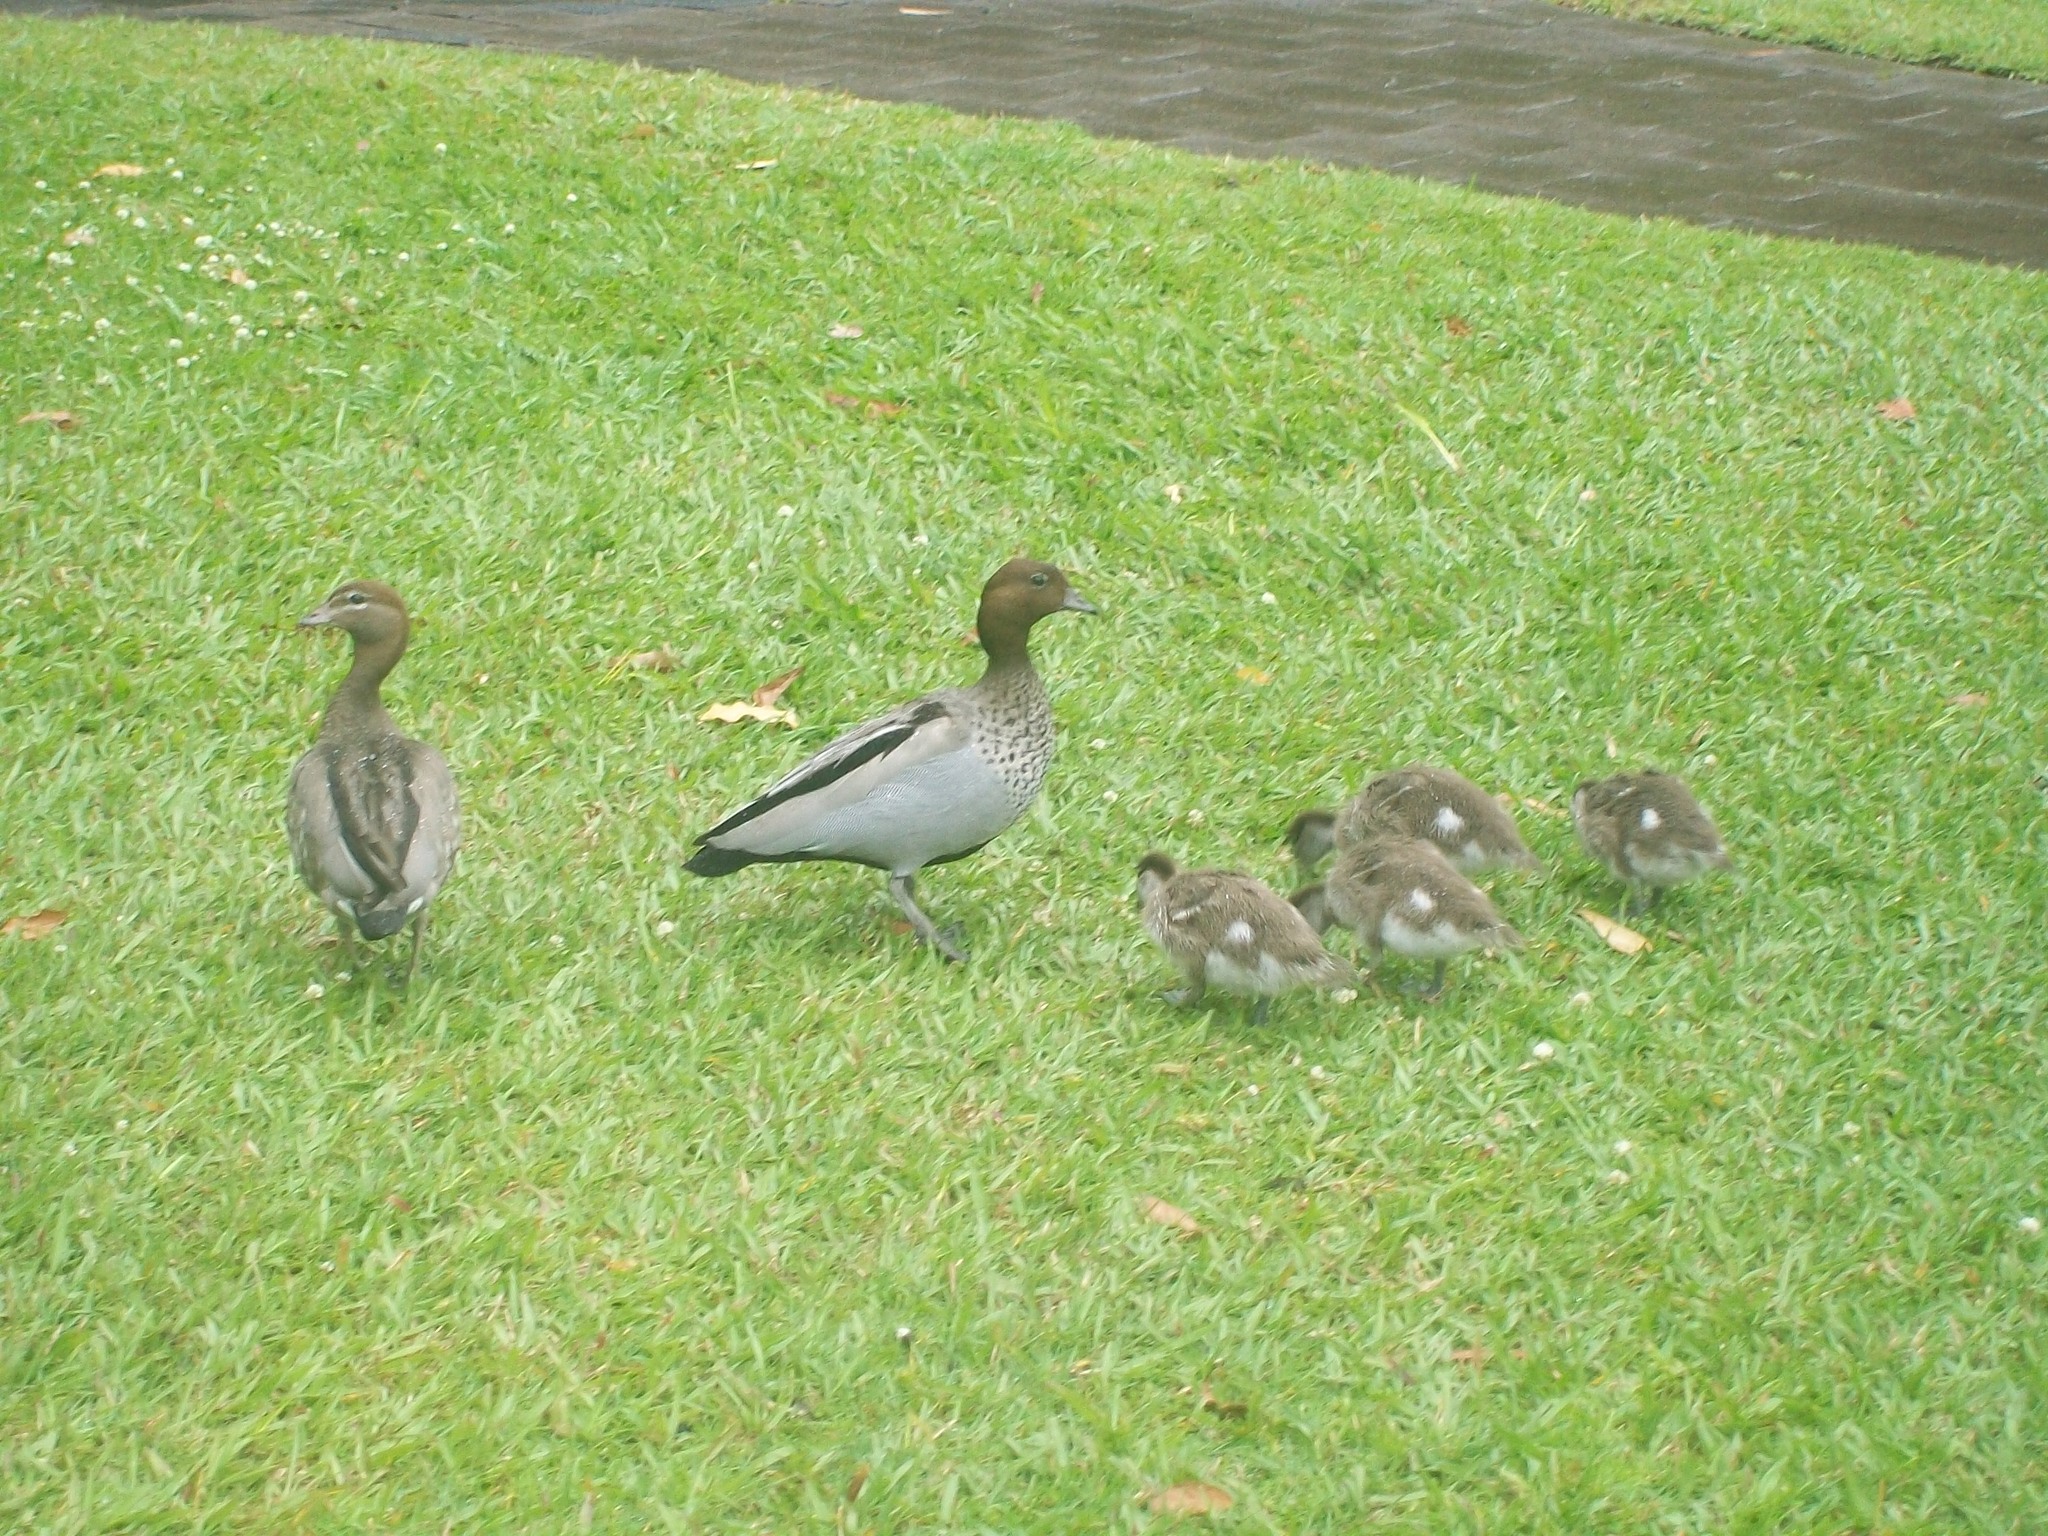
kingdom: Animalia
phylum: Chordata
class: Aves
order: Anseriformes
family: Anatidae
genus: Chenonetta
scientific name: Chenonetta jubata
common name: Maned duck
